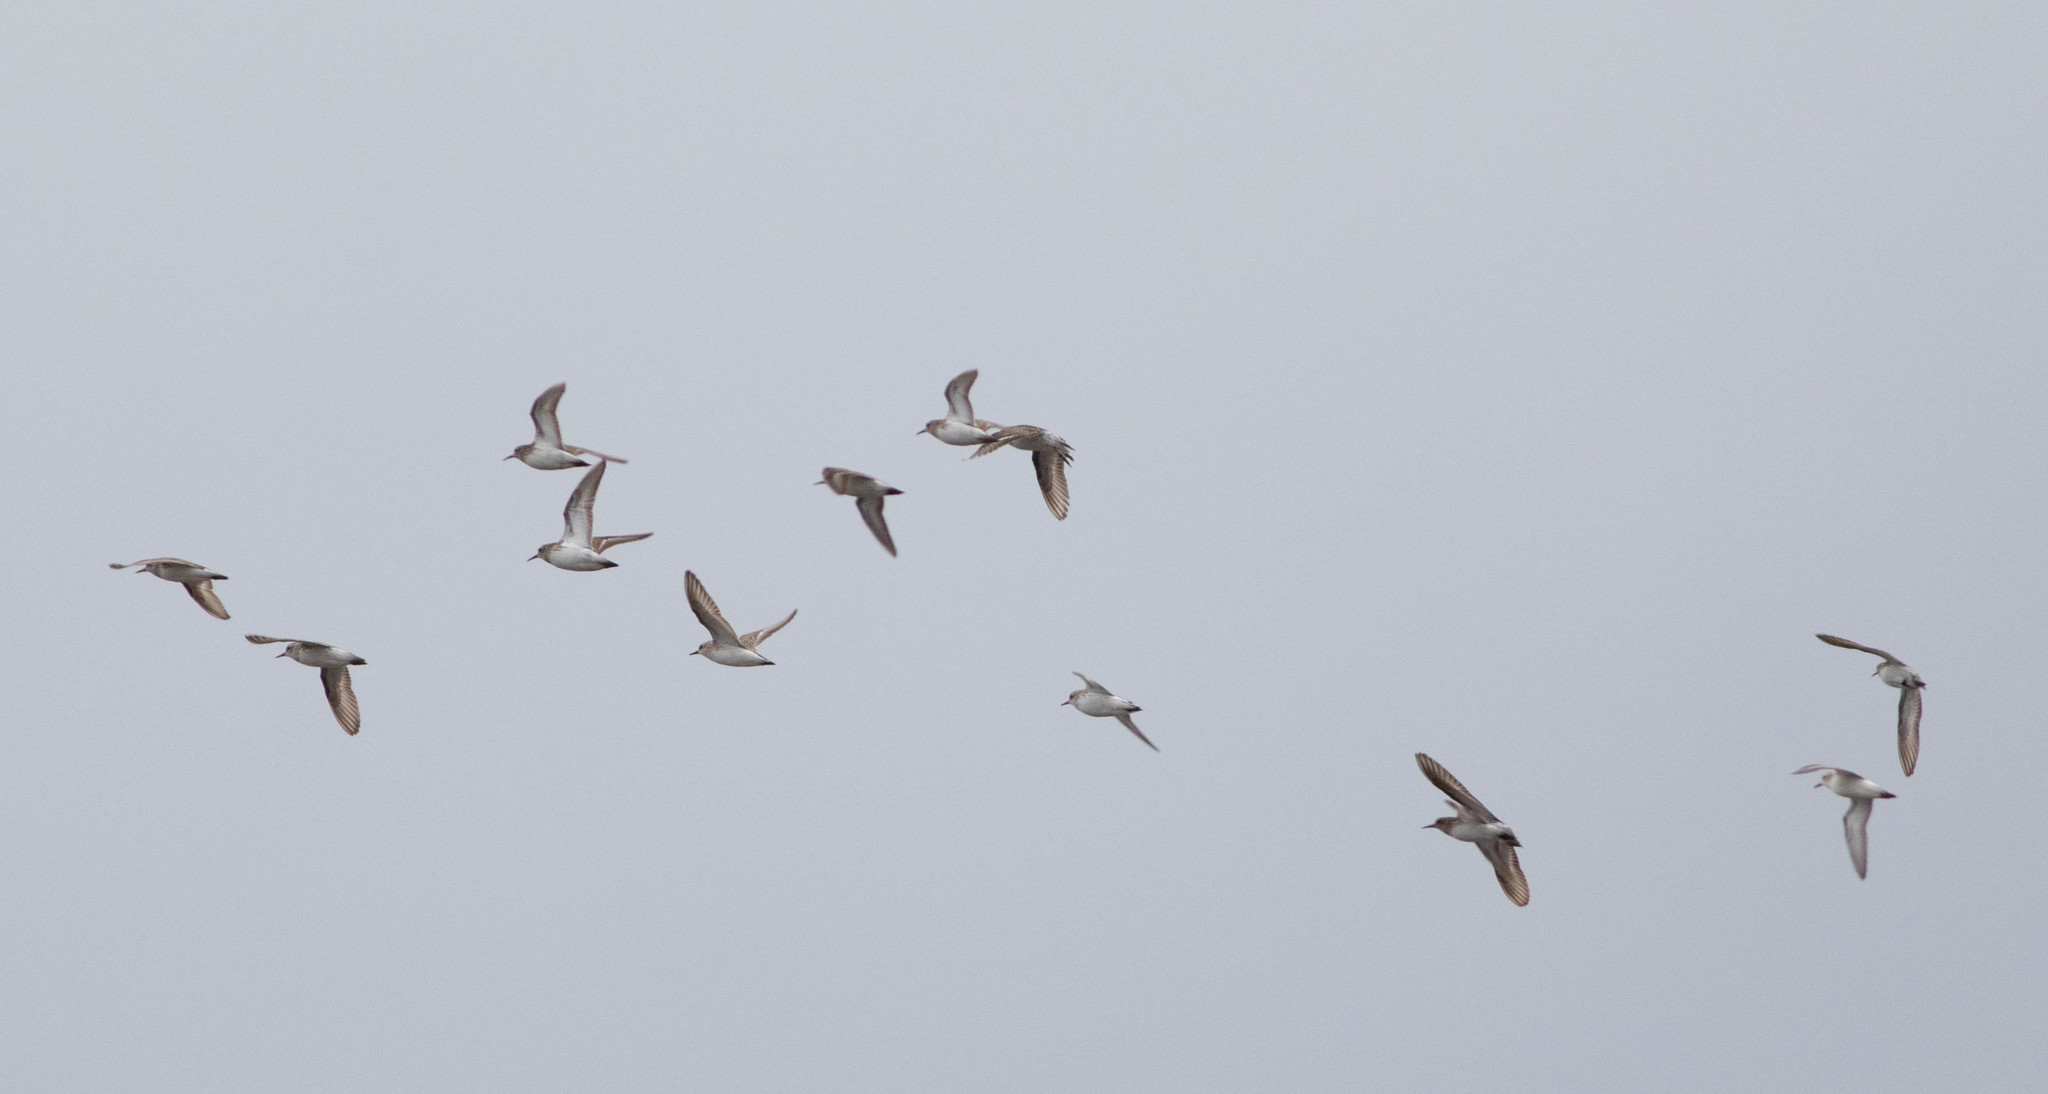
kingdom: Animalia
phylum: Chordata
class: Aves
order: Charadriiformes
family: Scolopacidae
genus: Calidris
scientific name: Calidris minutilla
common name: Least sandpiper
